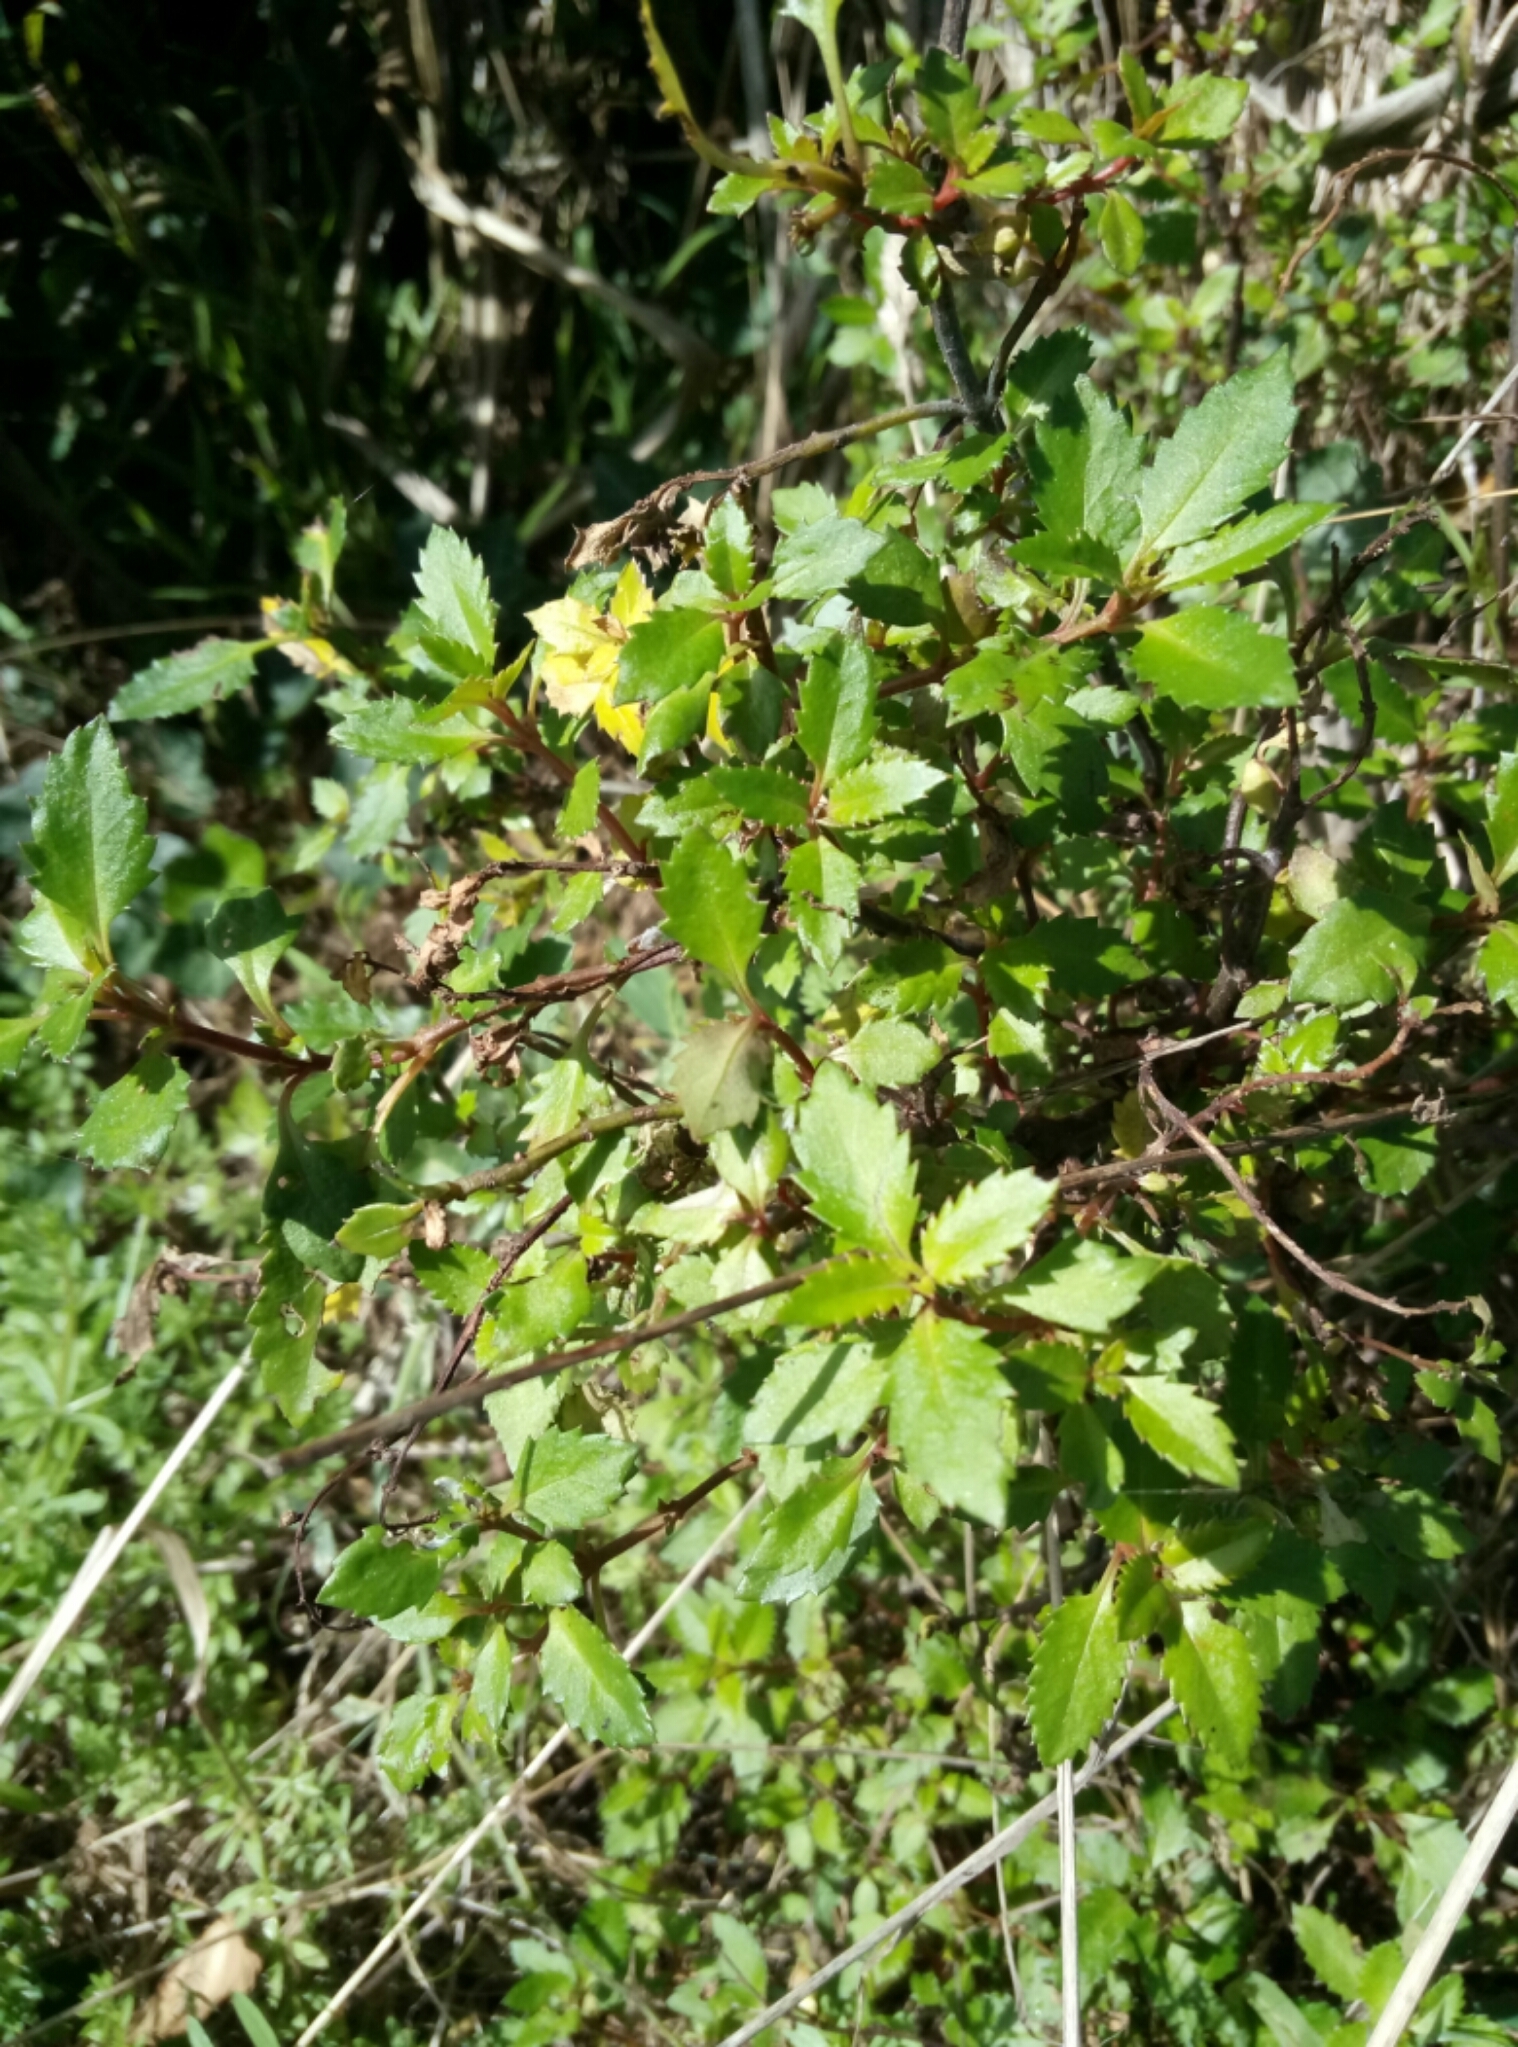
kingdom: Plantae
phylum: Tracheophyta
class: Magnoliopsida
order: Saxifragales
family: Haloragaceae
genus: Haloragis
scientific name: Haloragis erecta
